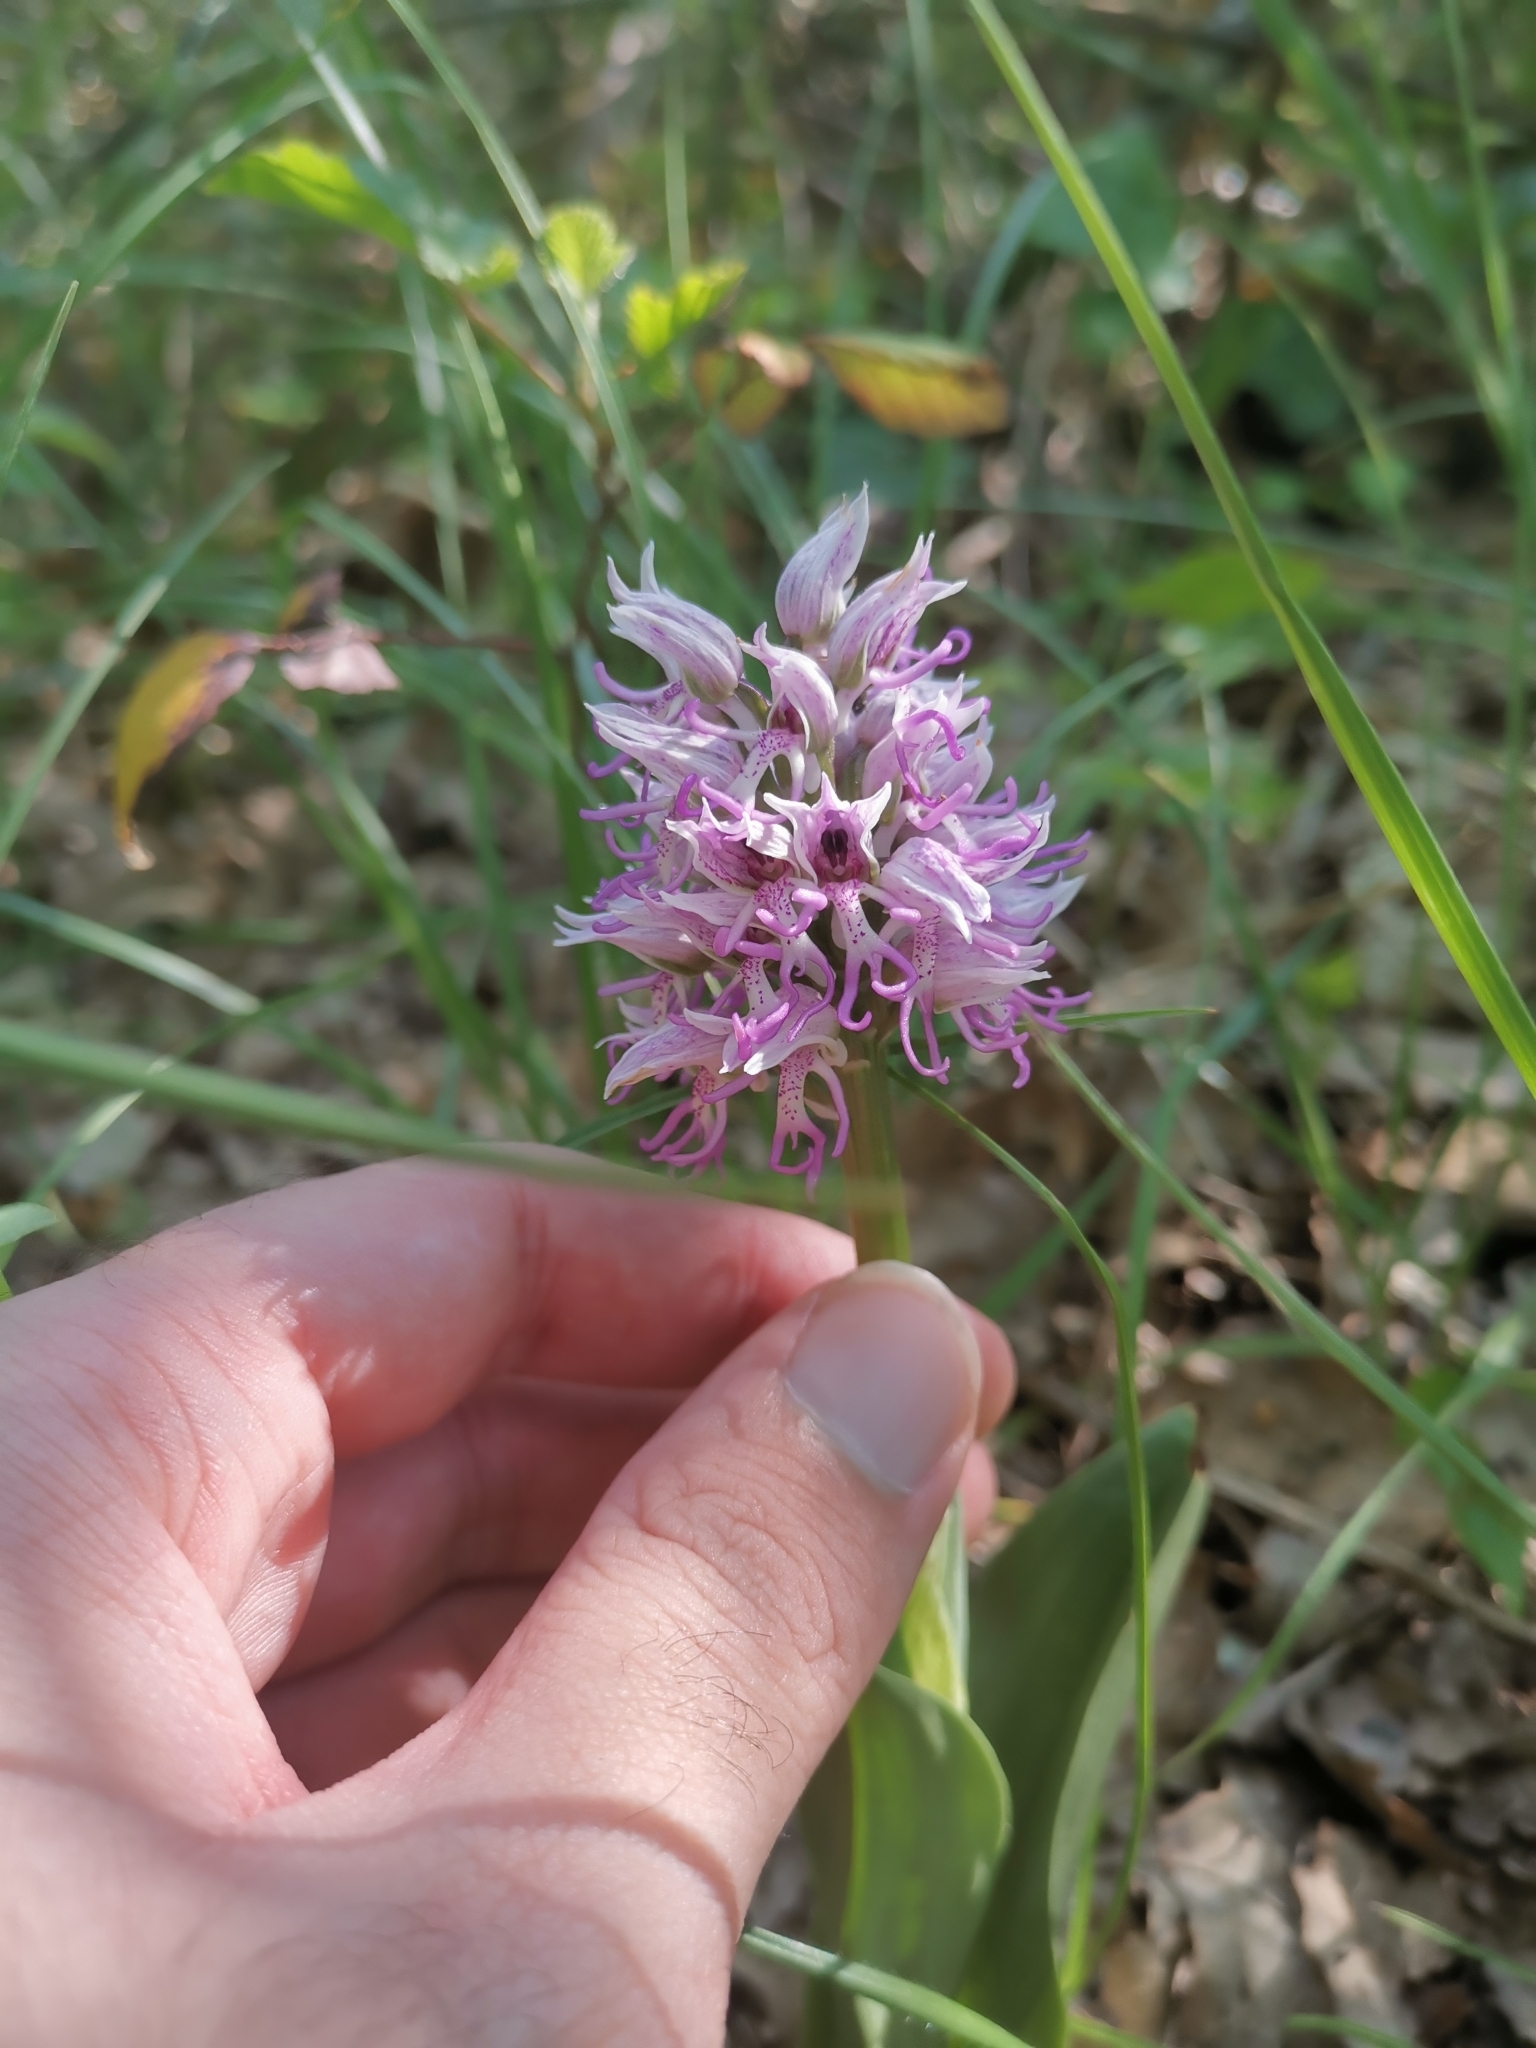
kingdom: Plantae
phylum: Tracheophyta
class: Liliopsida
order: Asparagales
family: Orchidaceae
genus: Orchis
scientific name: Orchis simia
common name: Monkey orchid
